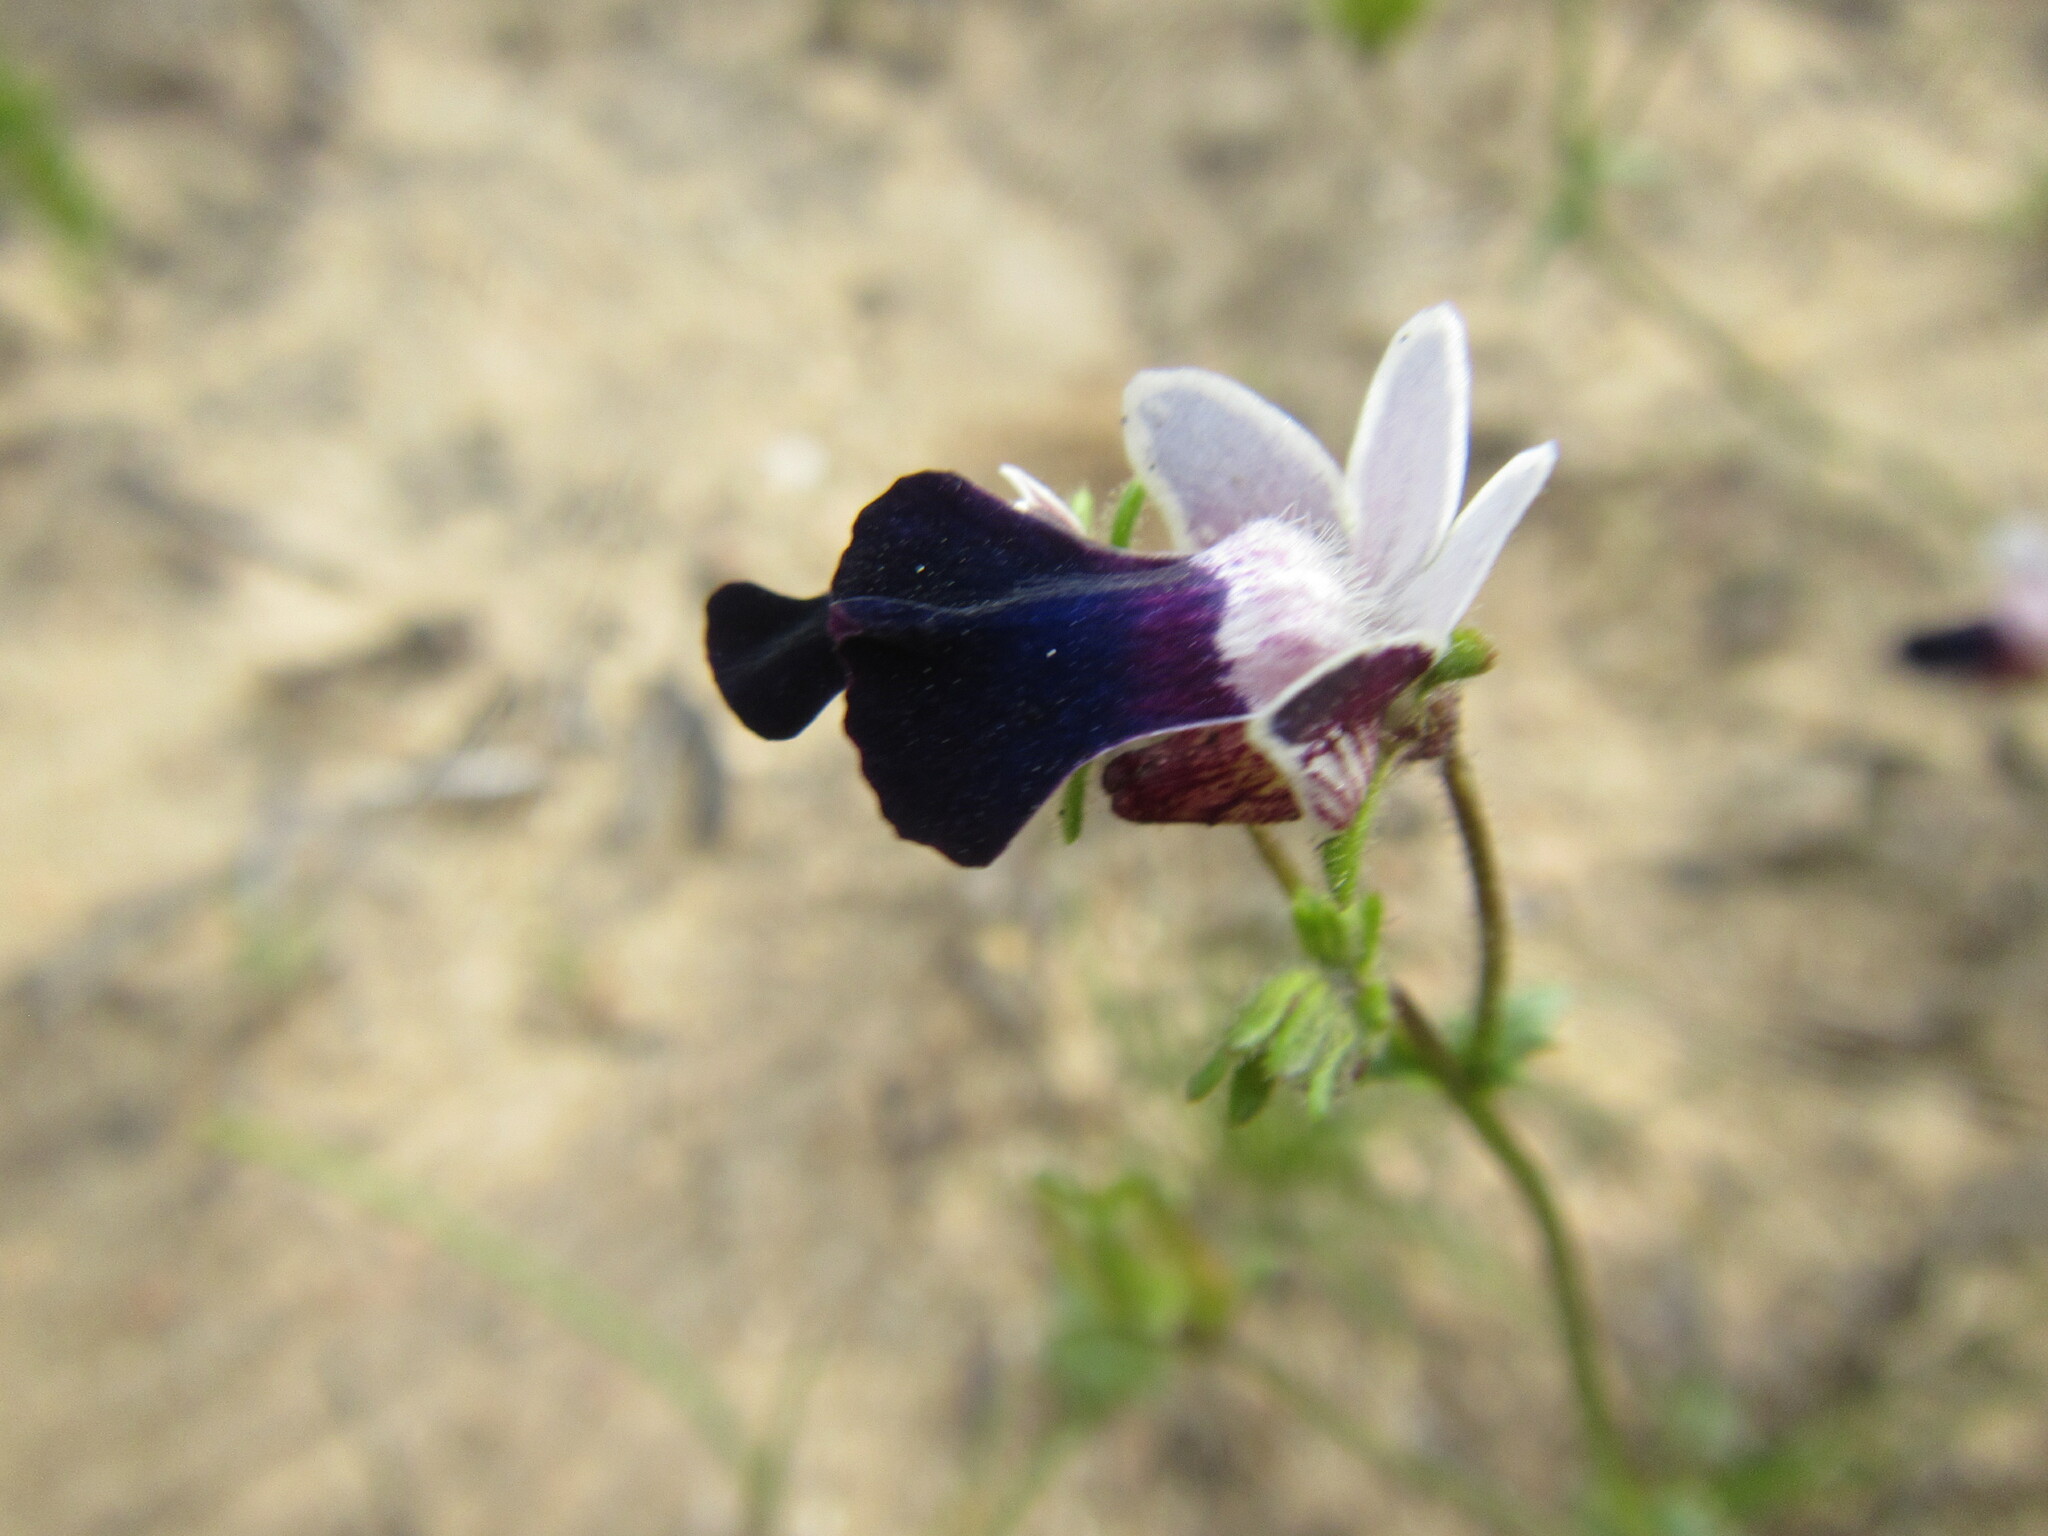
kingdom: Plantae
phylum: Tracheophyta
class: Magnoliopsida
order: Lamiales
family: Scrophulariaceae
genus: Nemesia
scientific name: Nemesia barbata
